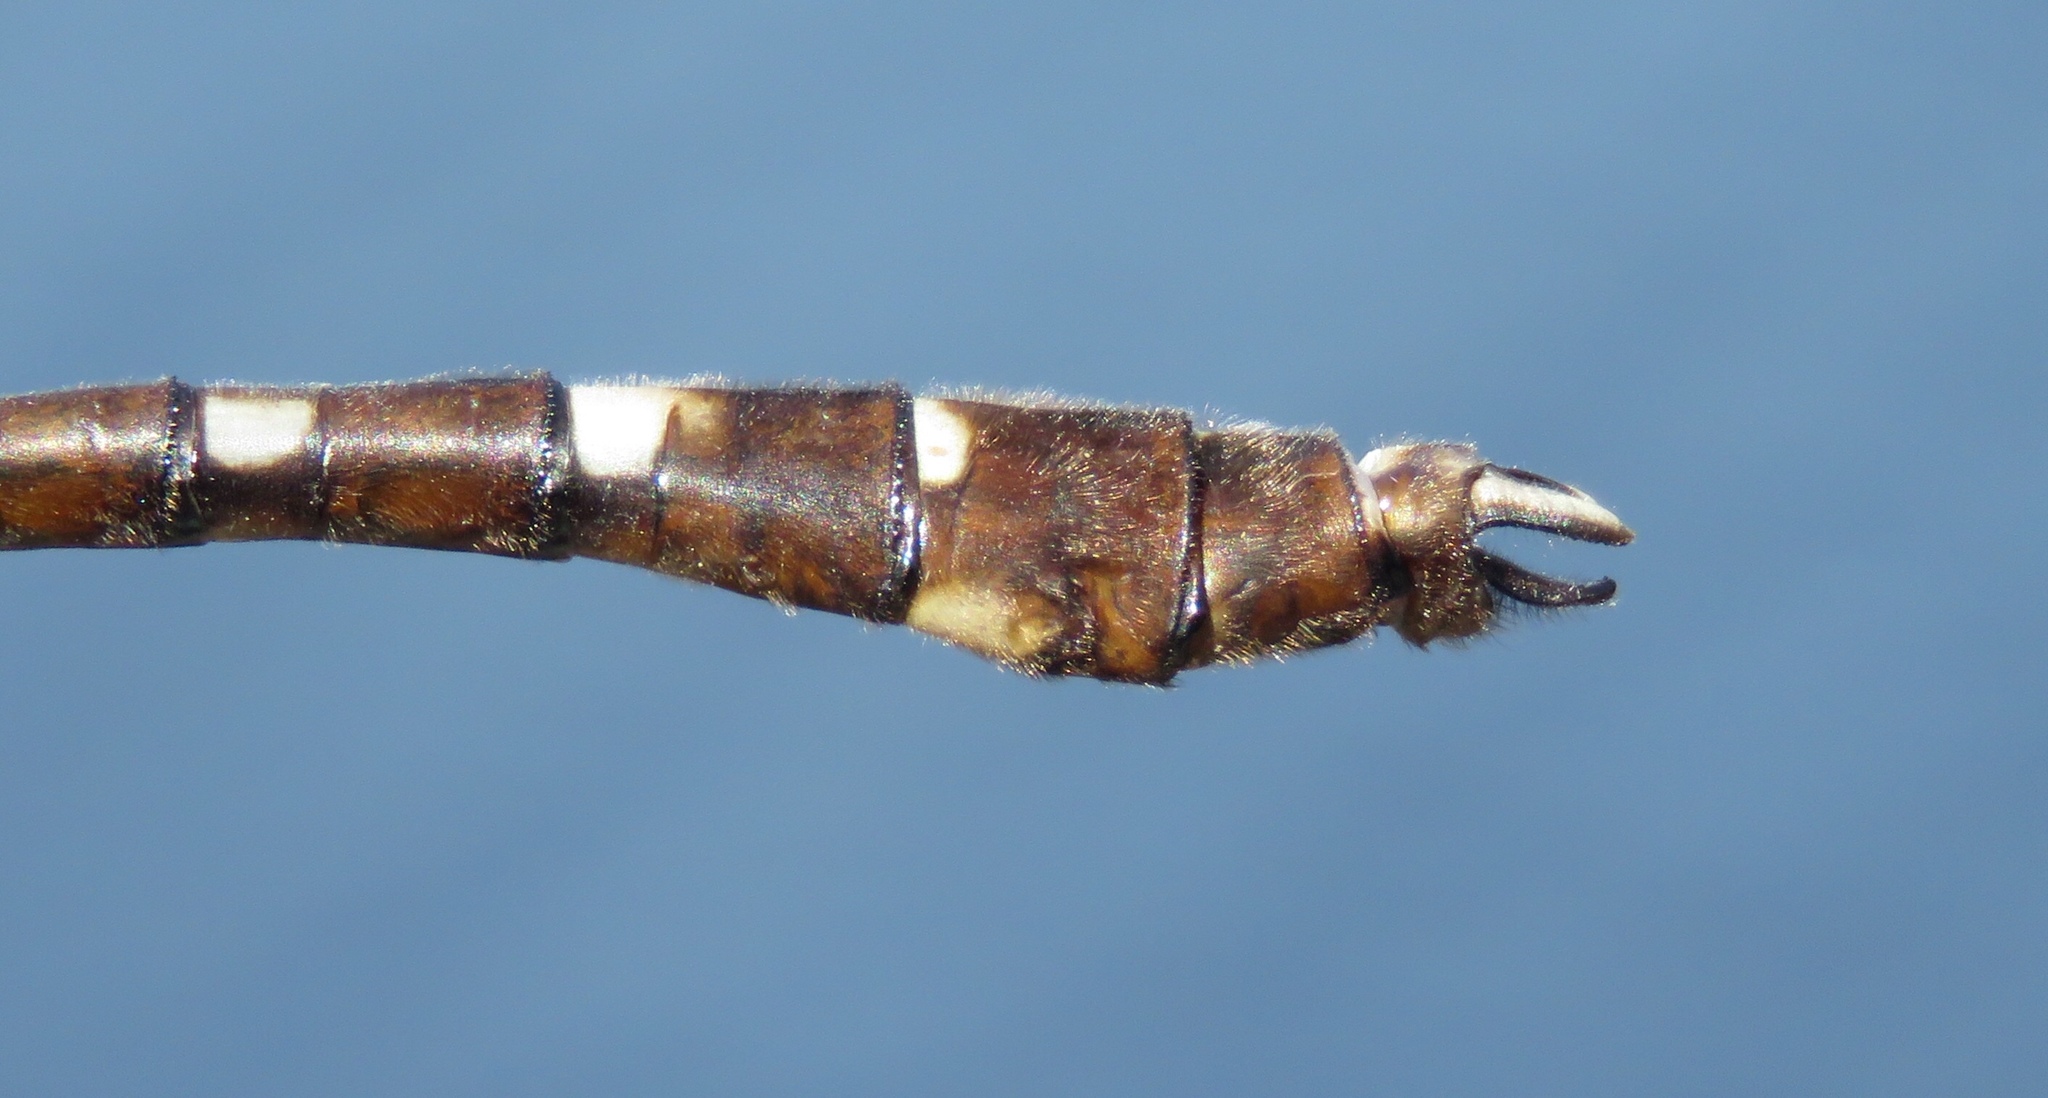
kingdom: Animalia
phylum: Arthropoda
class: Insecta
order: Odonata
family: Macromiidae
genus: Didymops
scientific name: Didymops transversa
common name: Stream cruiser
